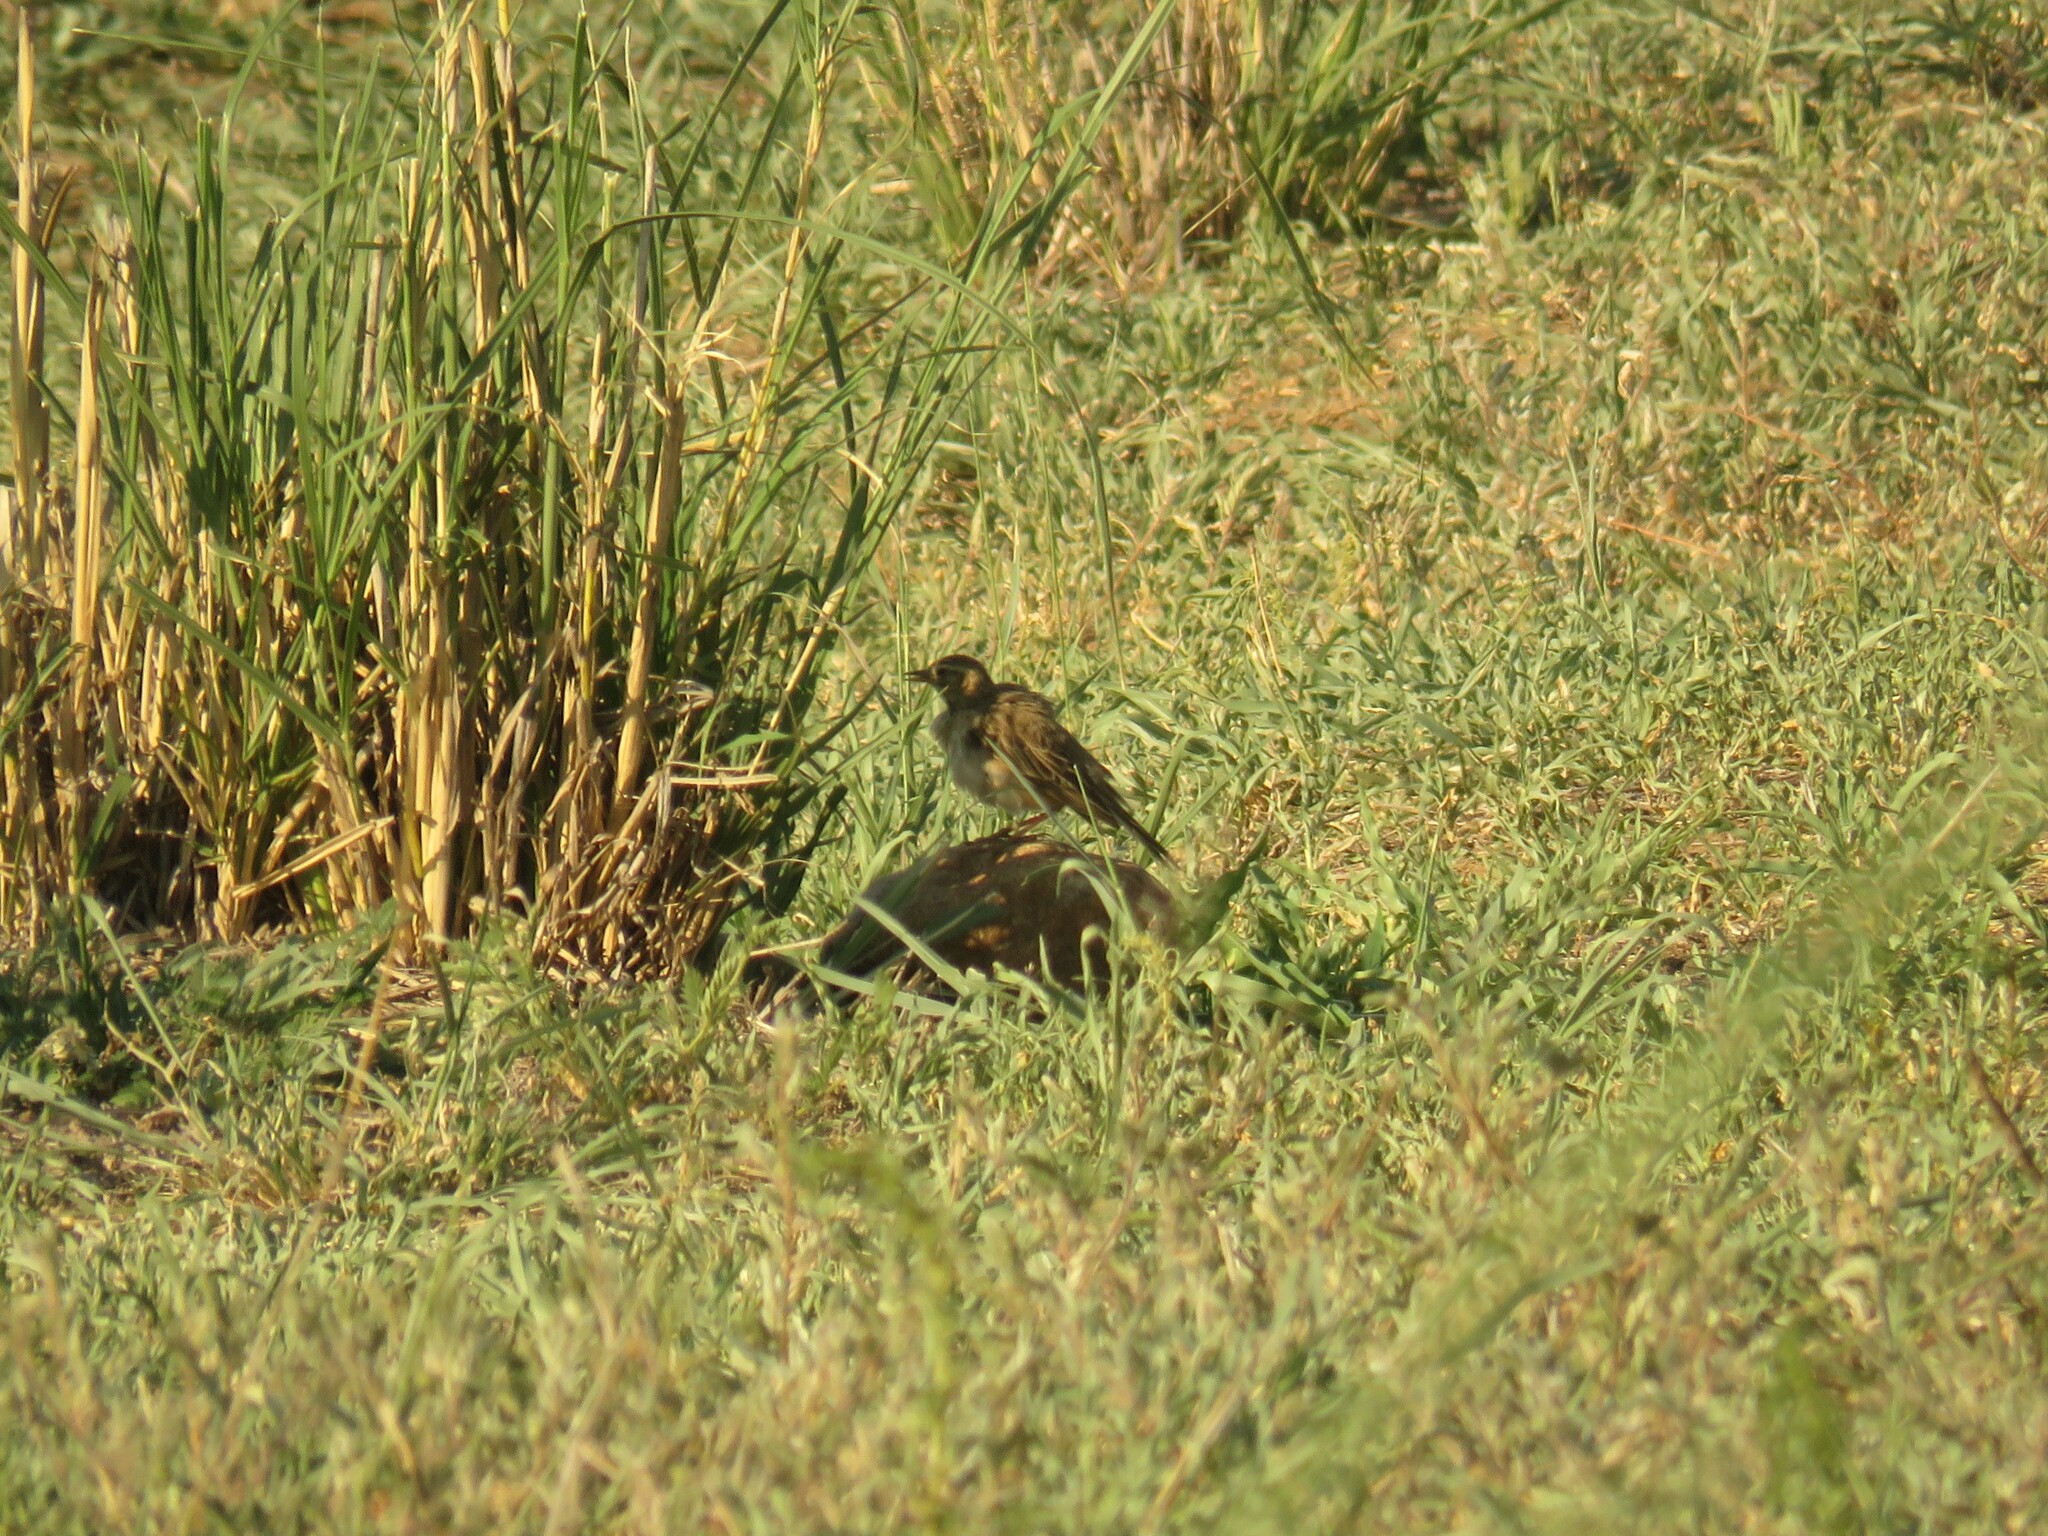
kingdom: Animalia
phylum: Chordata
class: Aves
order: Passeriformes
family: Motacillidae
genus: Anthus
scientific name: Anthus leucophrys
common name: Plain-backed pipit
